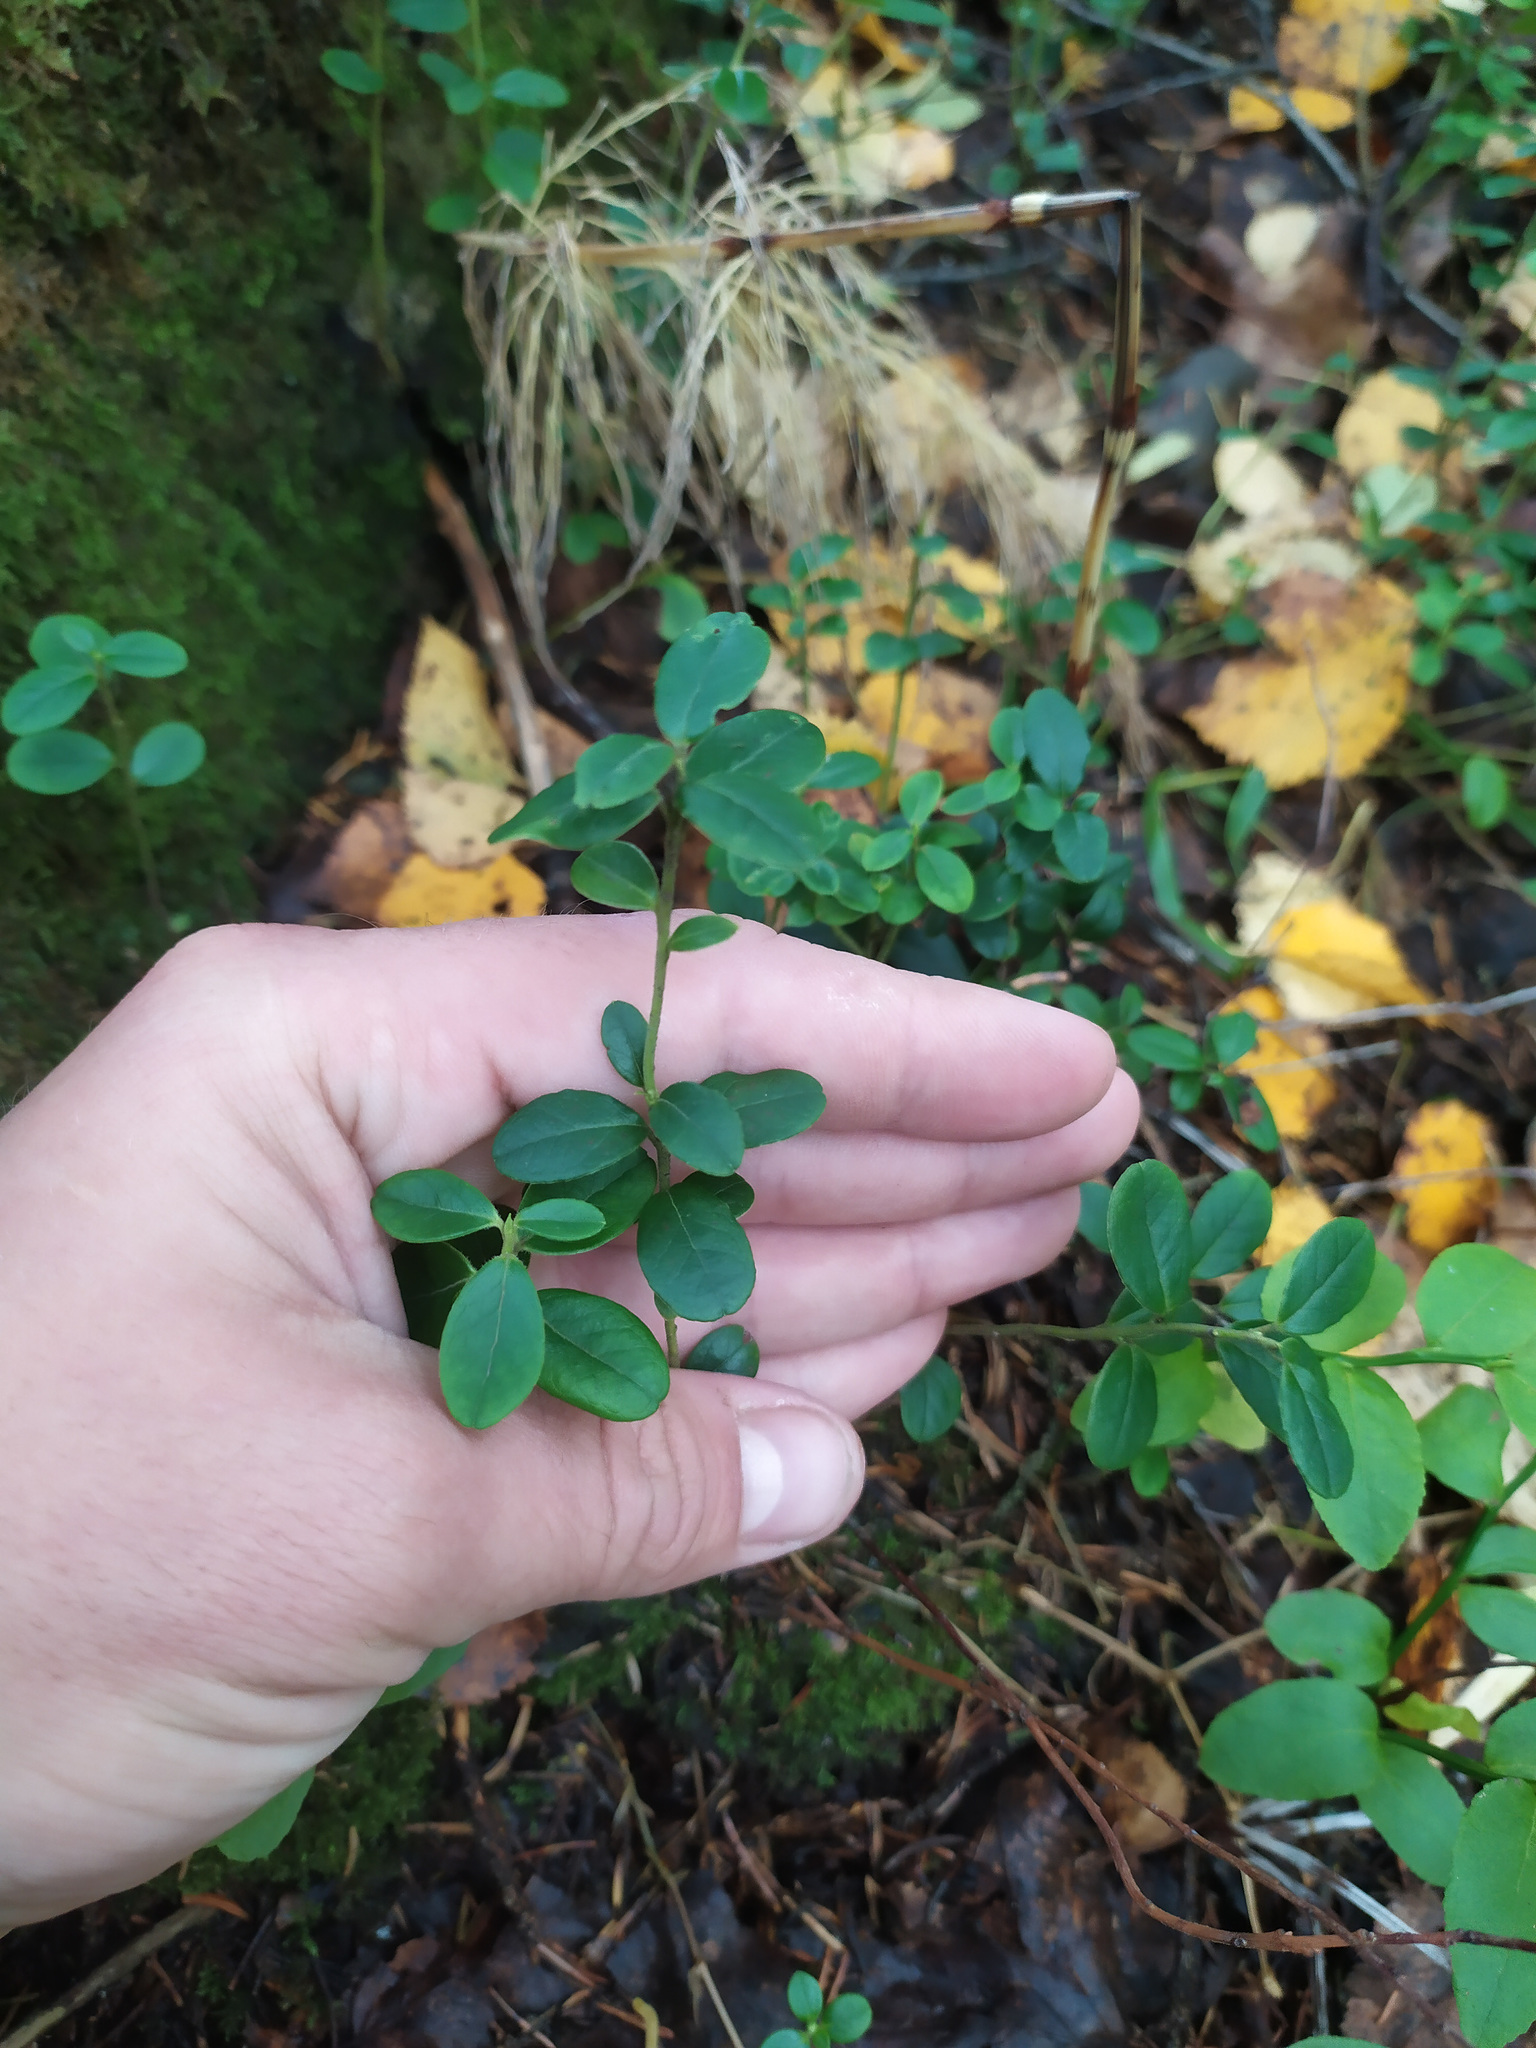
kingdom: Plantae
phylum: Tracheophyta
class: Magnoliopsida
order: Ericales
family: Ericaceae
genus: Vaccinium
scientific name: Vaccinium vitis-idaea
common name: Cowberry
